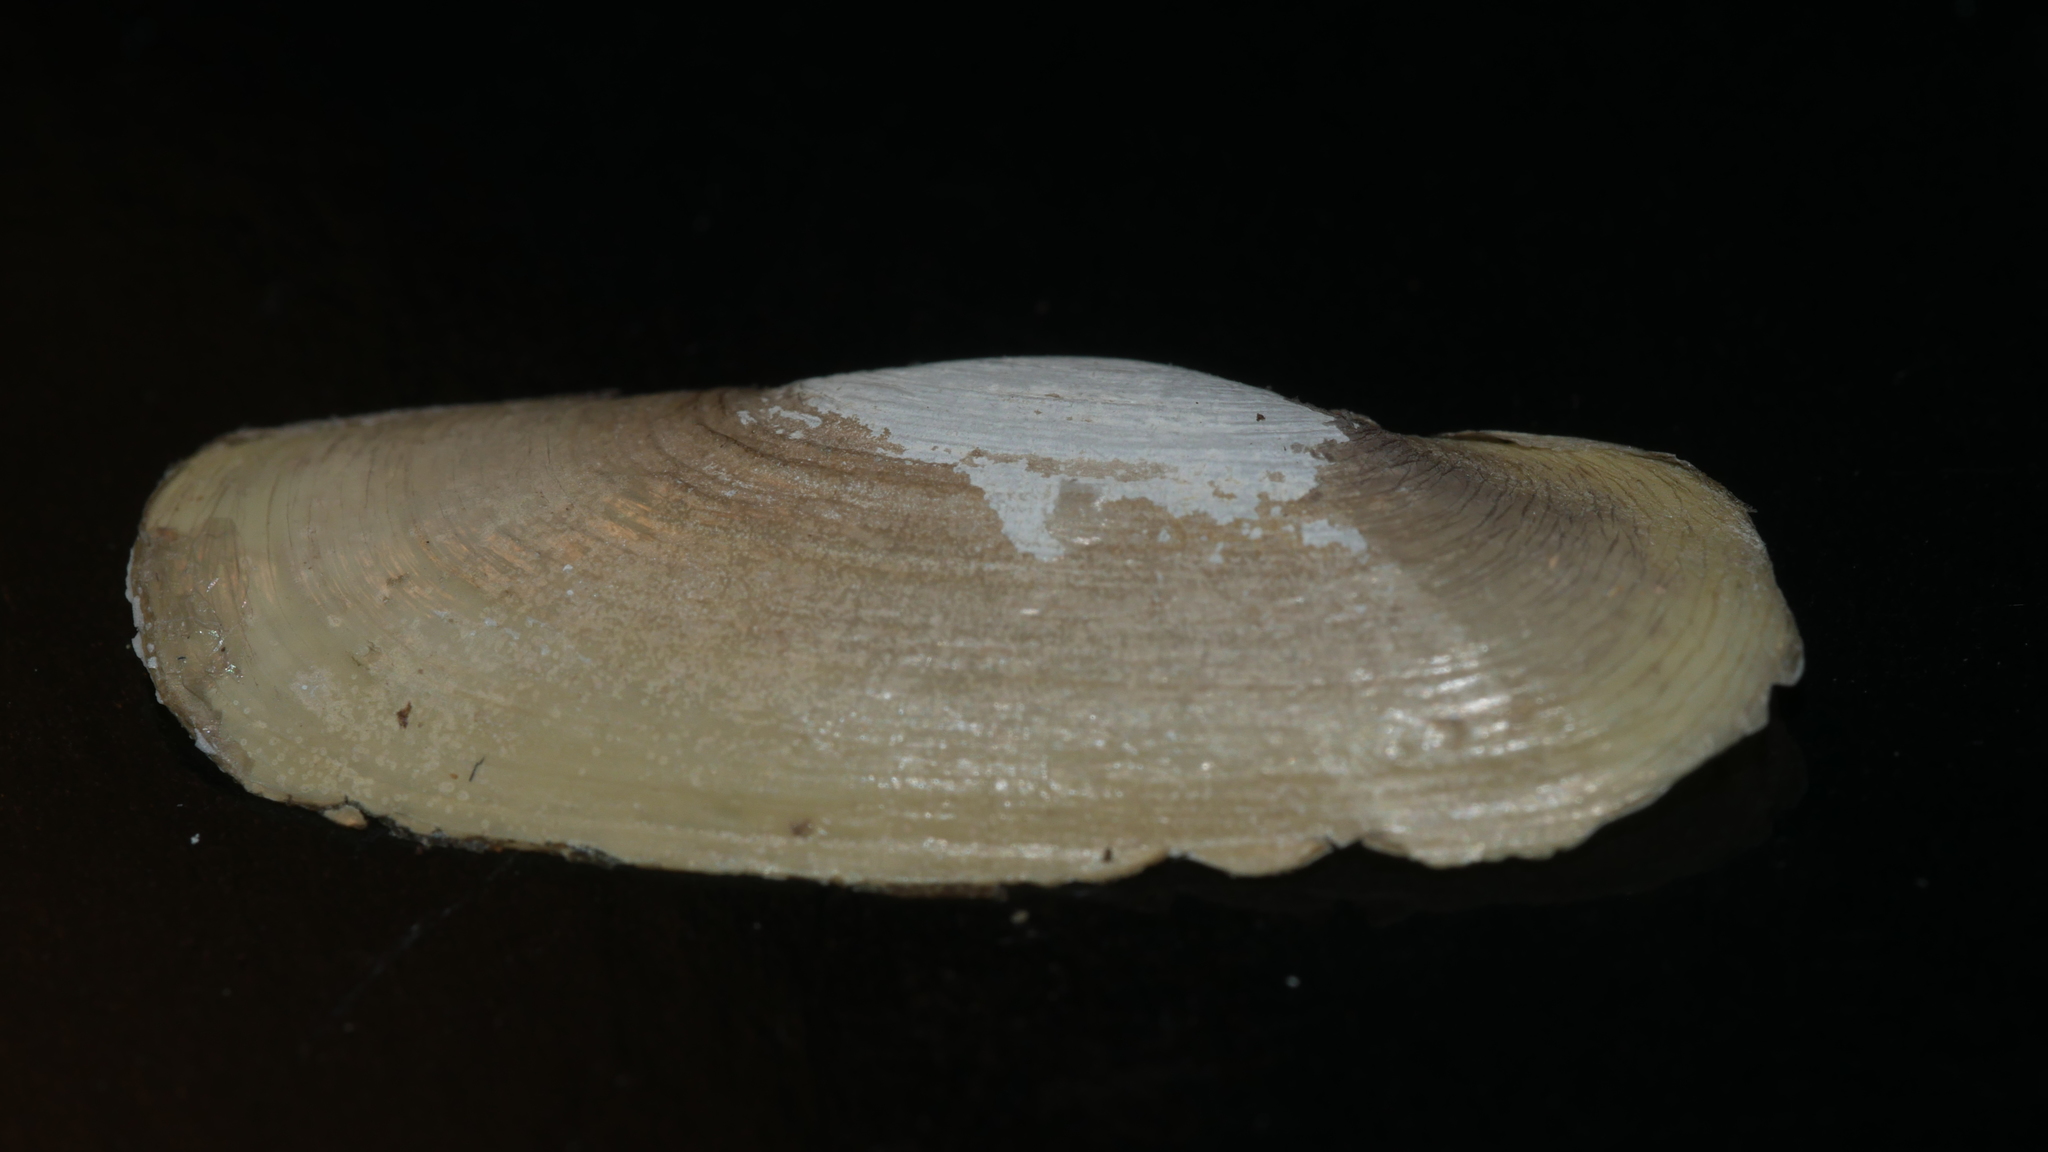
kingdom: Animalia
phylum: Mollusca
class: Bivalvia
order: Cardiida
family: Solecurtidae
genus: Tagelus
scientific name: Tagelus plebeius
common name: Stout tagelus
